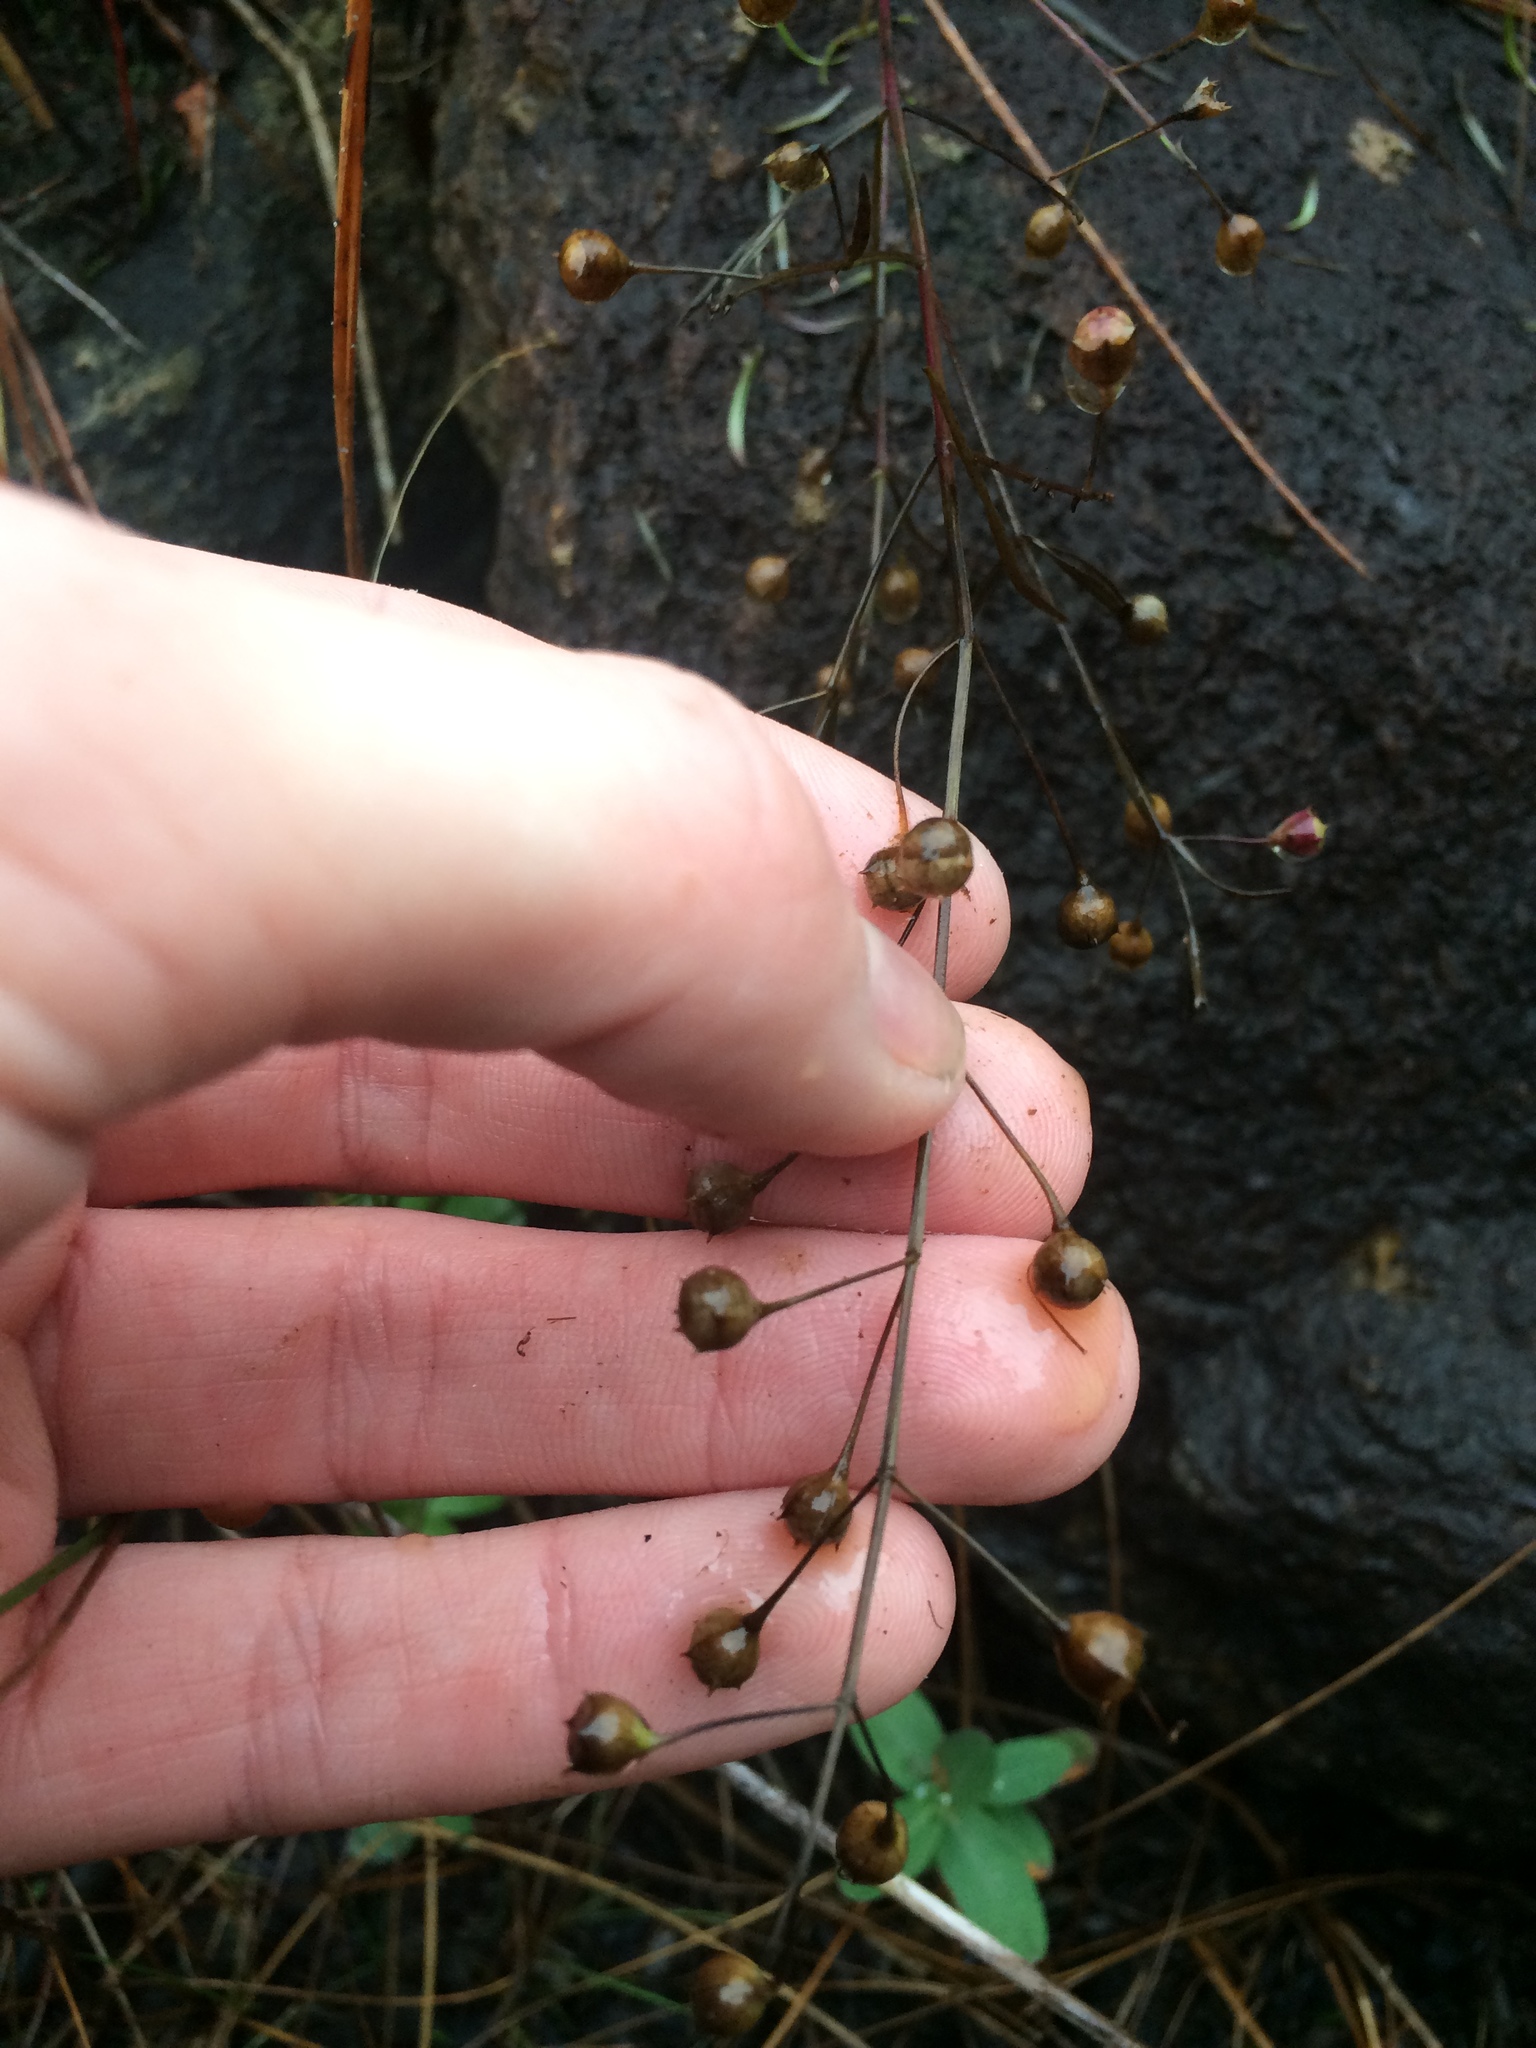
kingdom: Plantae
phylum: Tracheophyta
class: Magnoliopsida
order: Lamiales
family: Orobanchaceae
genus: Agalinis
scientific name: Agalinis tenuifolia
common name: Slender agalinis
